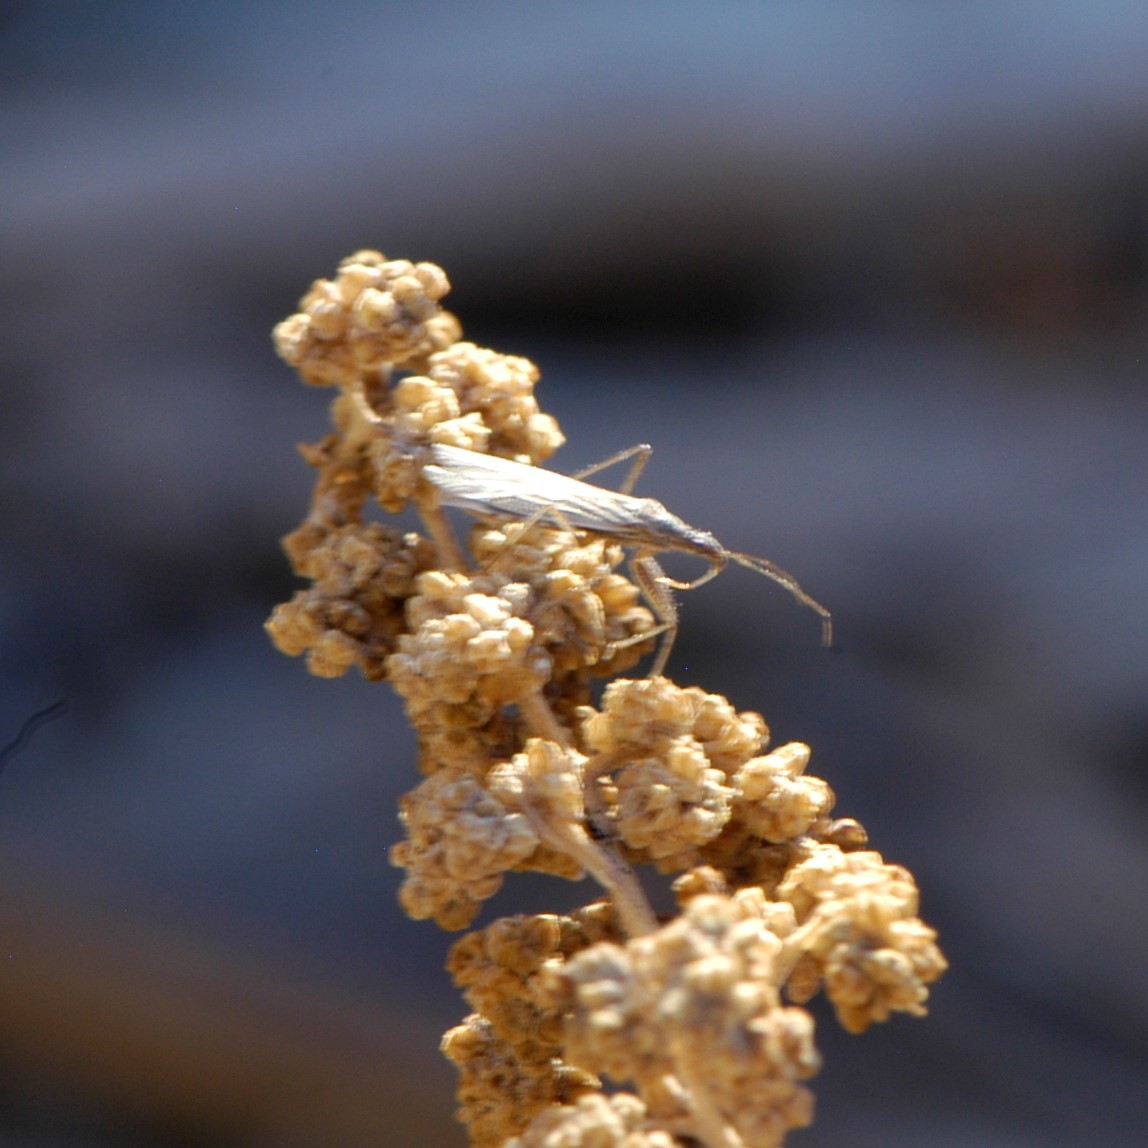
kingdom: Animalia
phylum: Arthropoda
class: Insecta
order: Hemiptera
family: Nabidae
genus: Nabis
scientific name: Nabis
